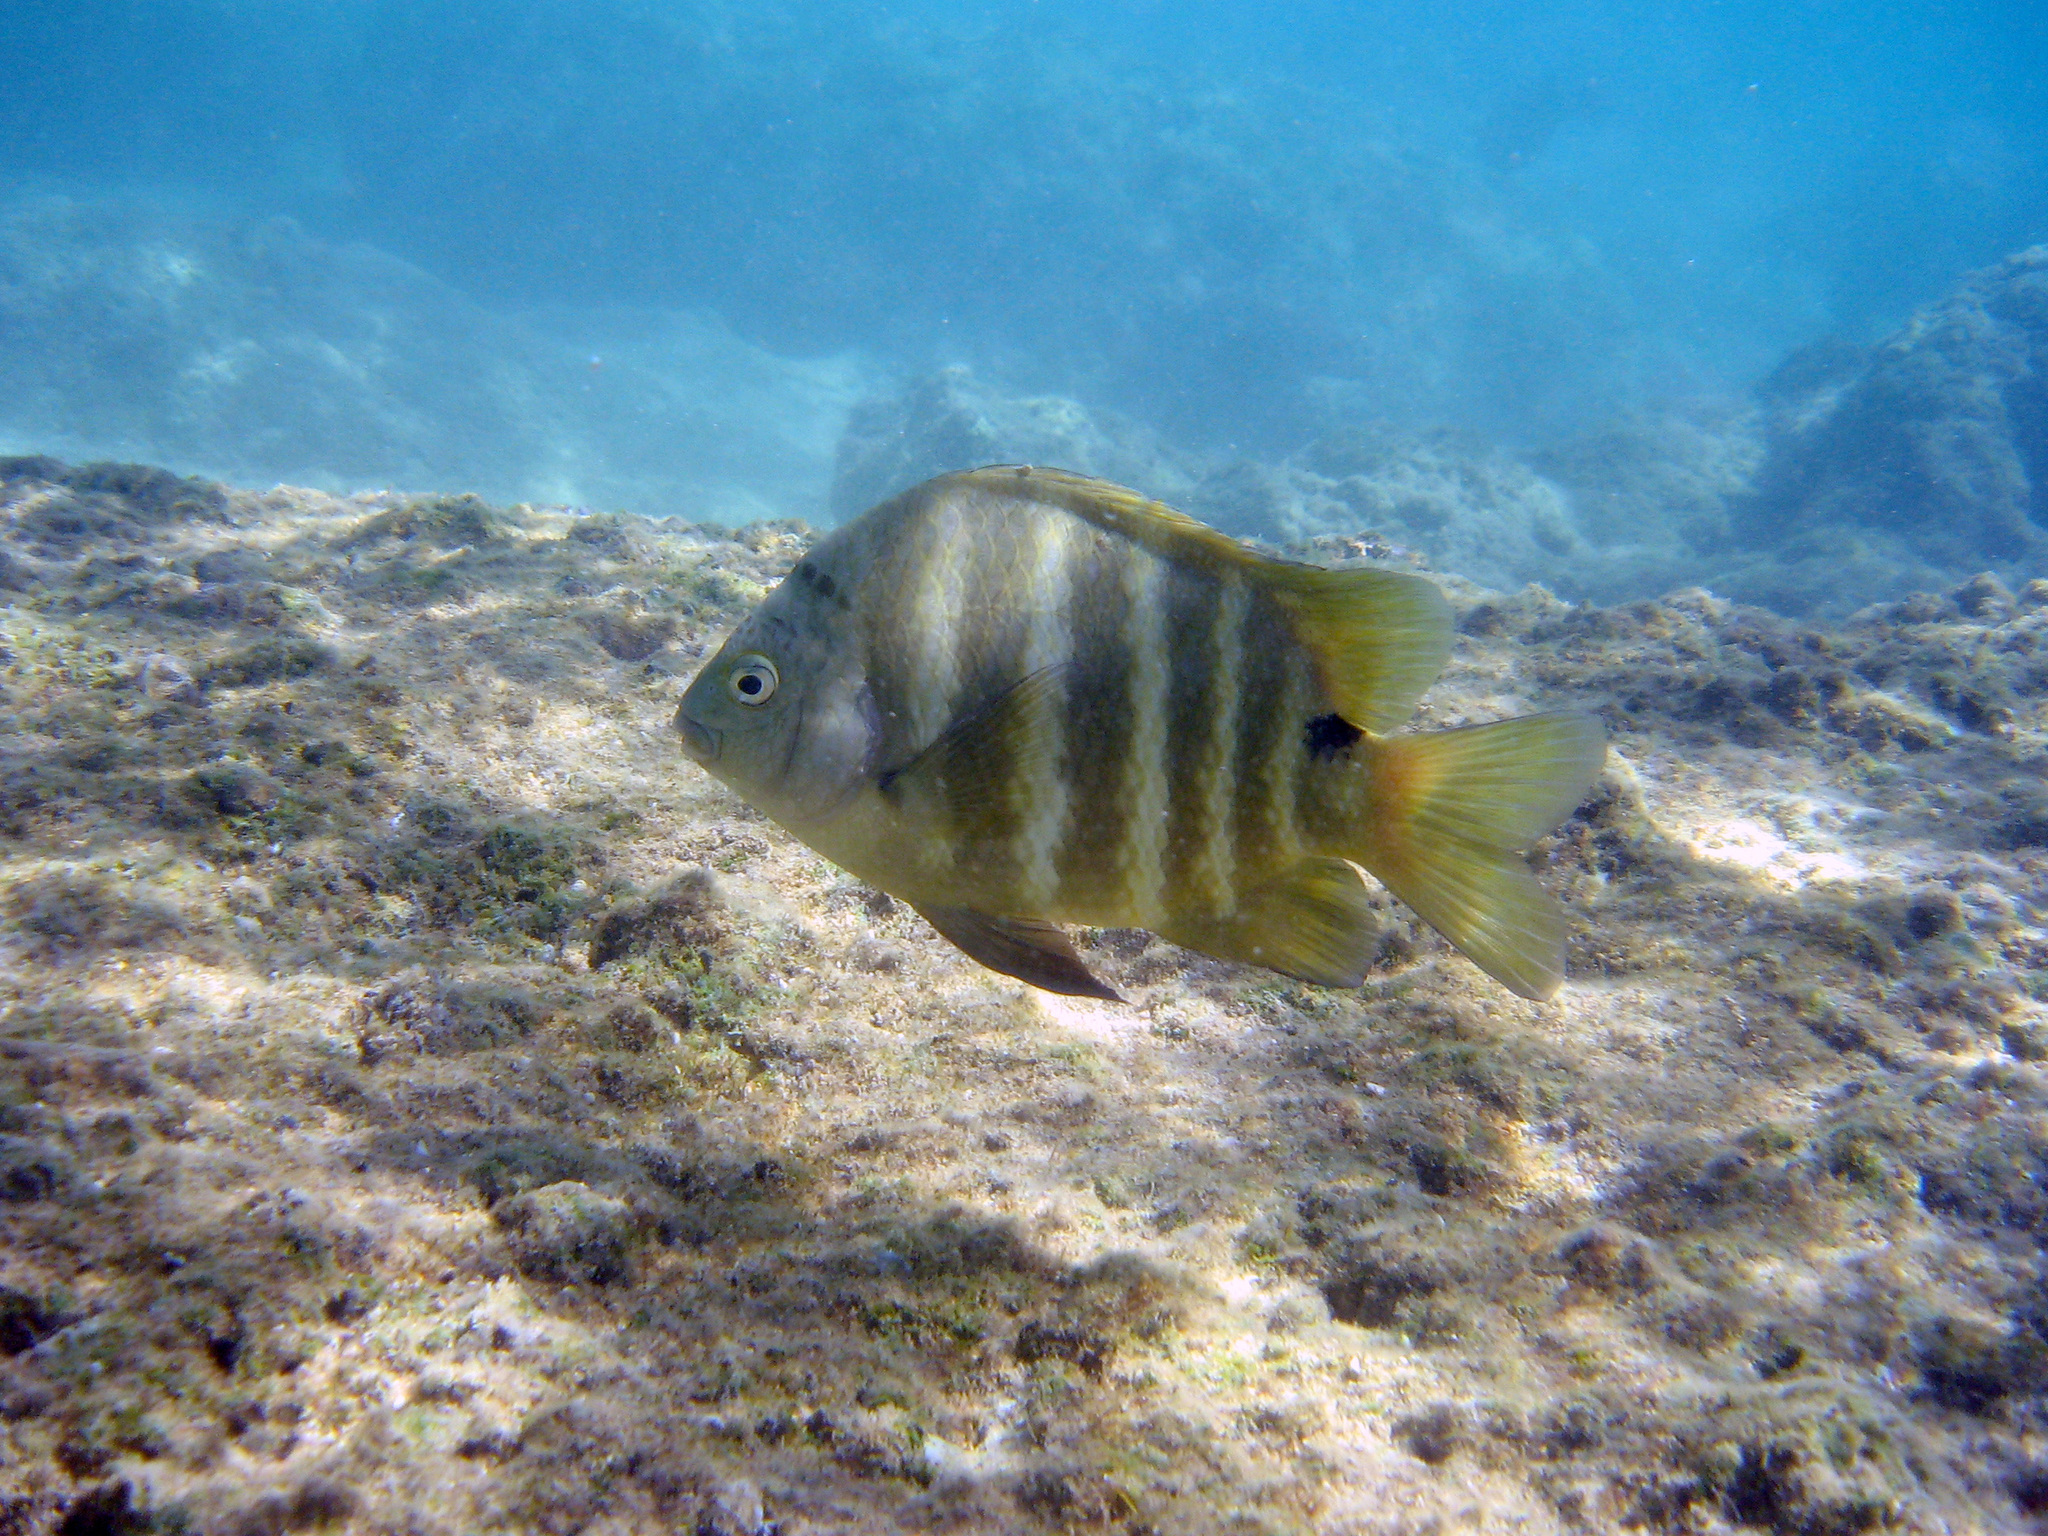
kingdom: Animalia
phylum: Chordata
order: Perciformes
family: Pomacentridae
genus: Abudefduf
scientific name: Abudefduf sordidus
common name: Blackspot sergeant
